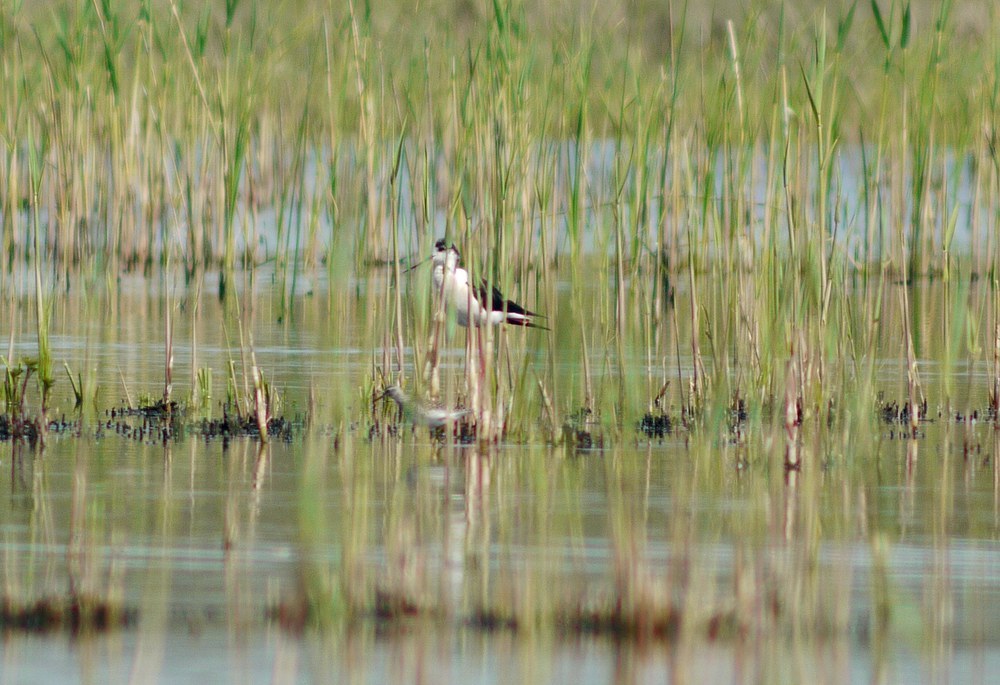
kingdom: Animalia
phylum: Chordata
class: Aves
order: Charadriiformes
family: Recurvirostridae
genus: Himantopus
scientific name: Himantopus himantopus
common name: Black-winged stilt
